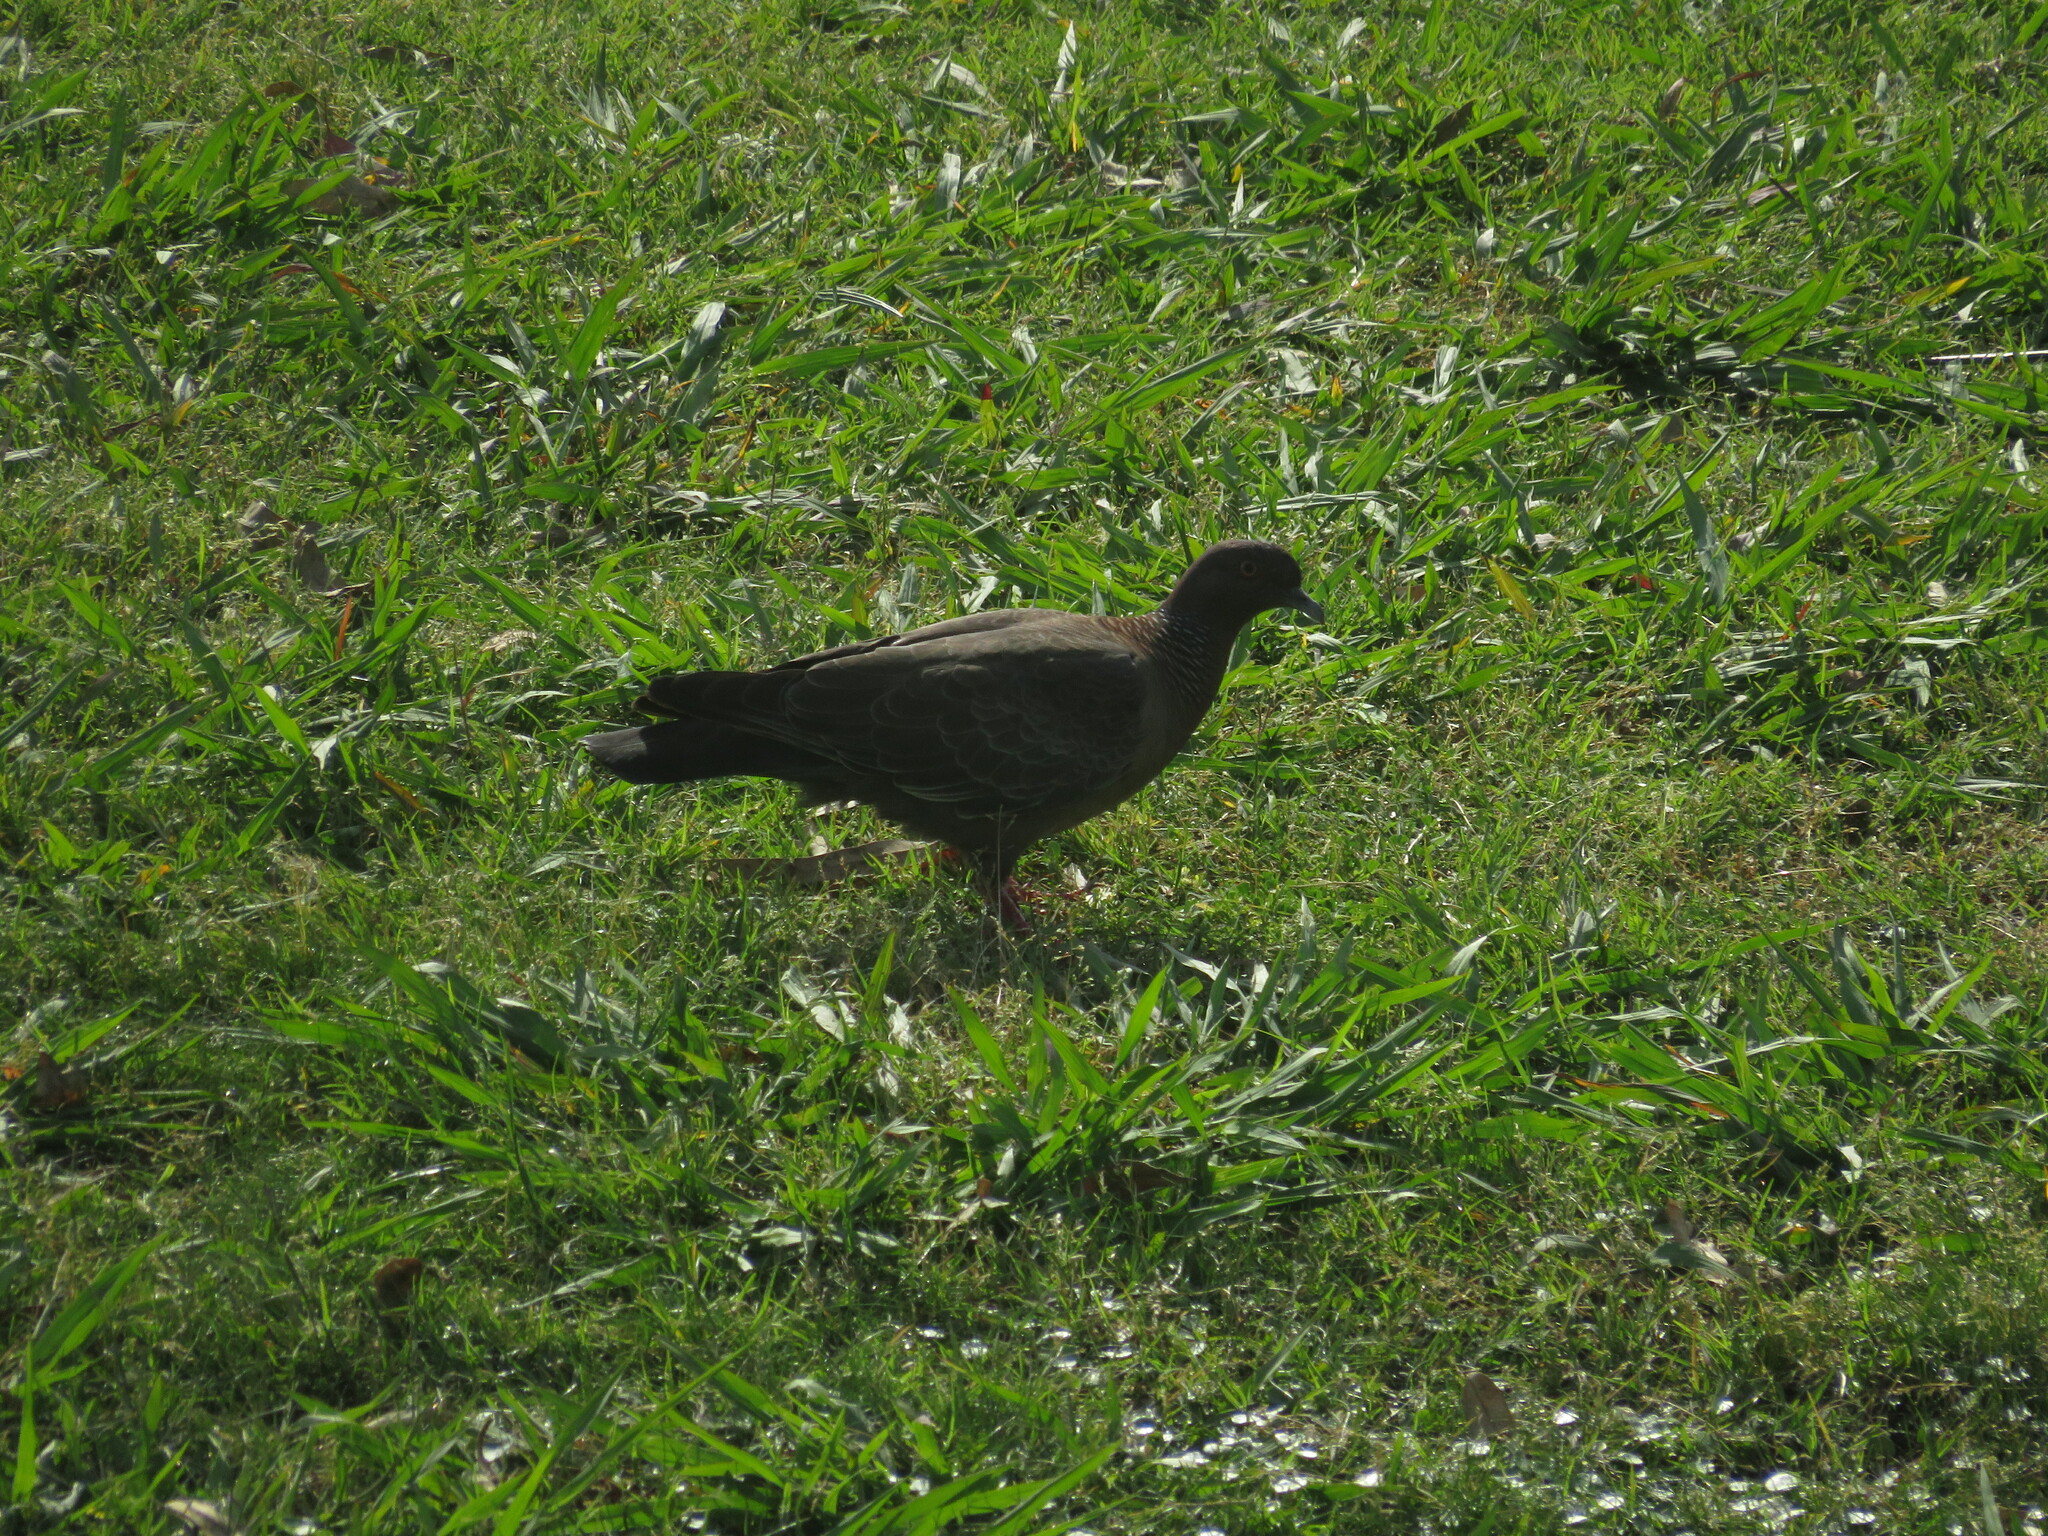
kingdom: Animalia
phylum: Chordata
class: Aves
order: Columbiformes
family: Columbidae
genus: Patagioenas
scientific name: Patagioenas picazuro
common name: Picazuro pigeon
